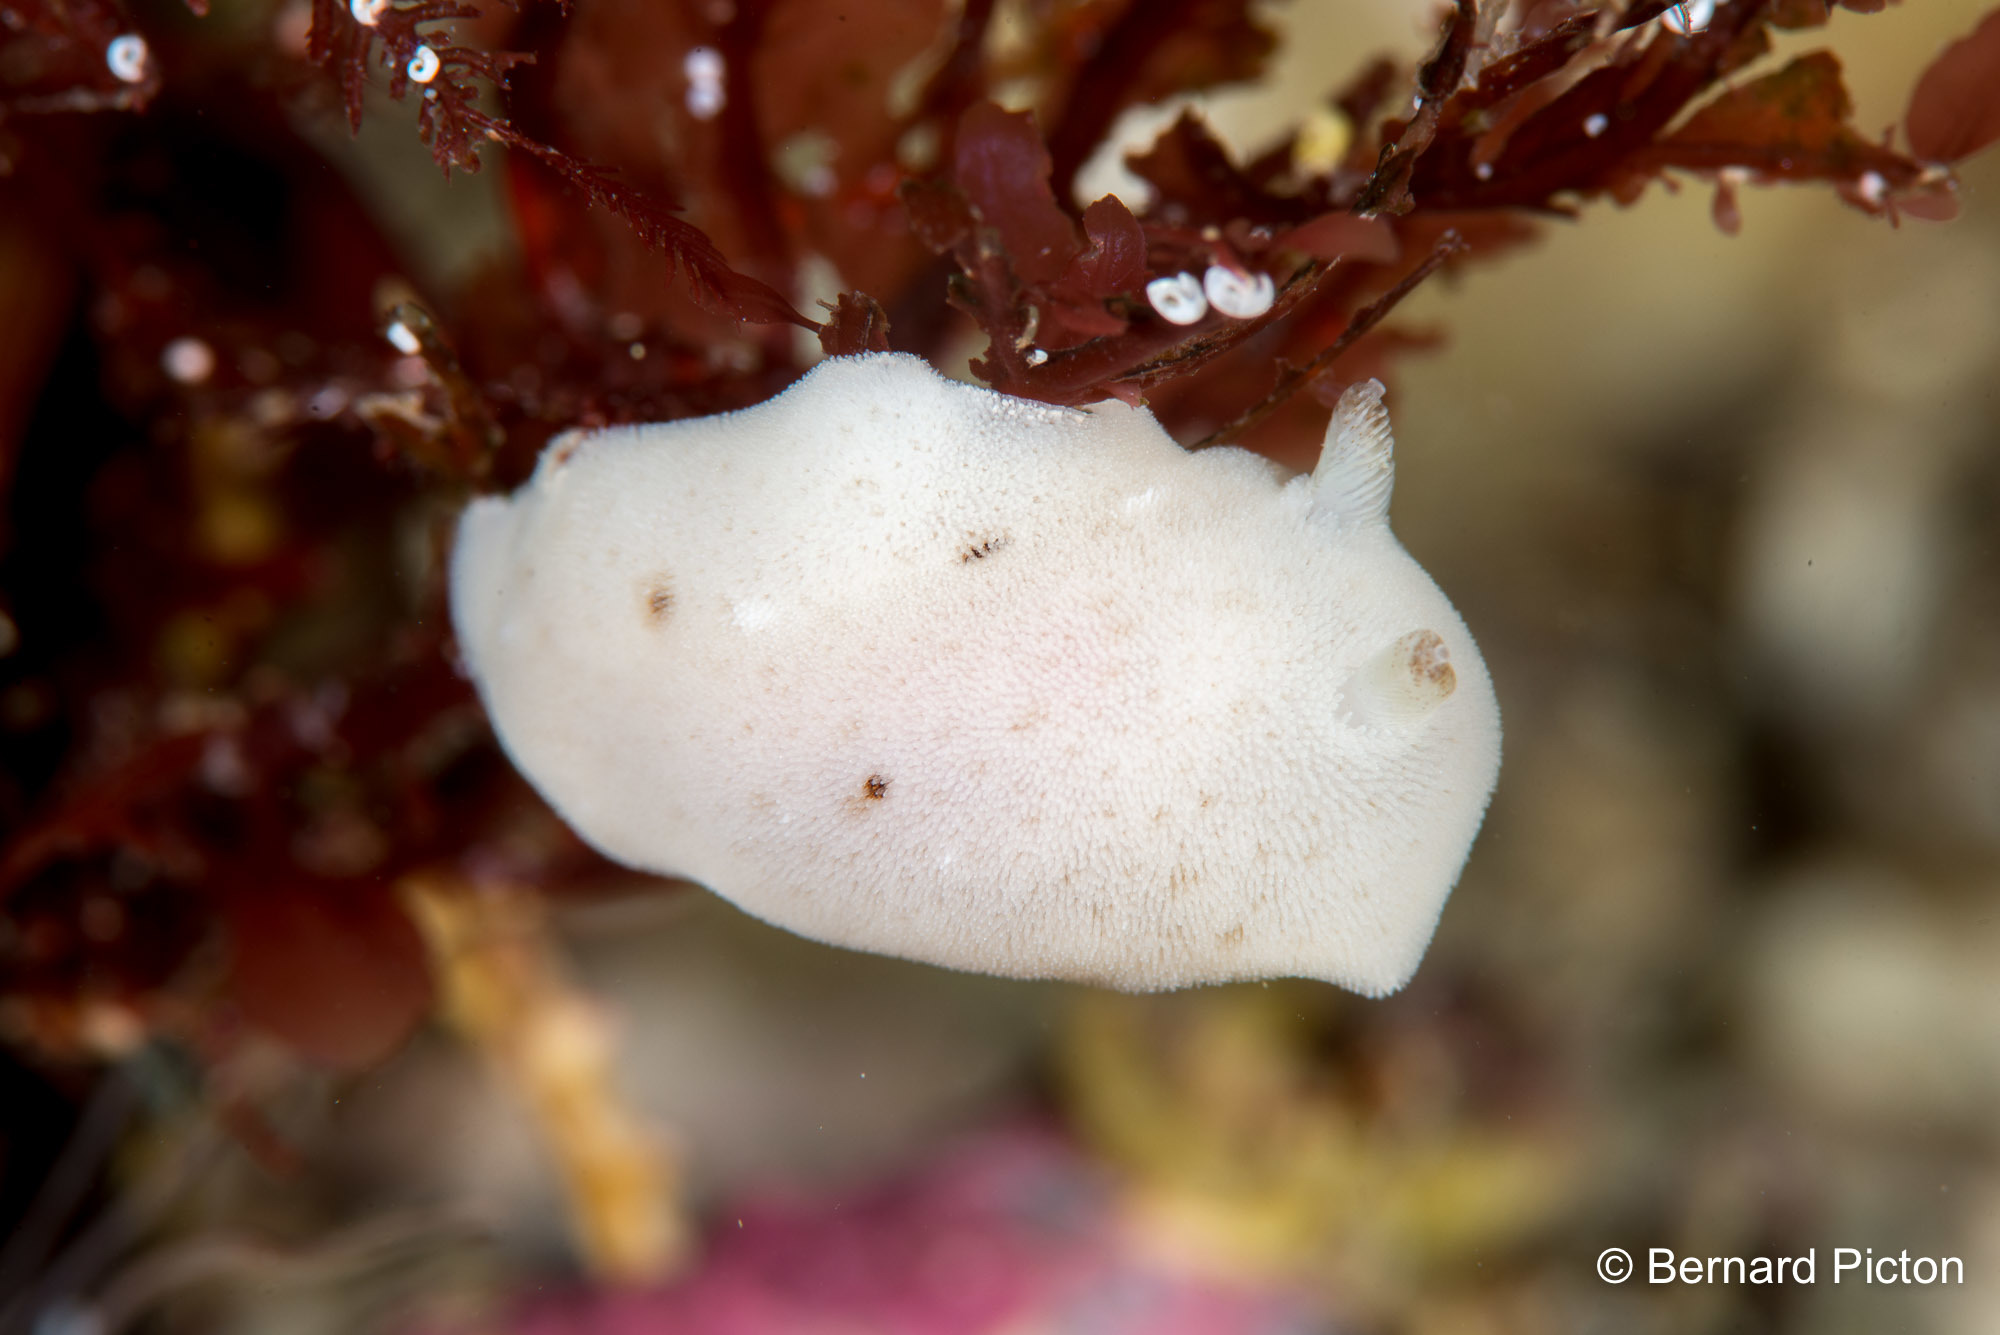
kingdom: Animalia
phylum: Mollusca
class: Gastropoda
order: Nudibranchia
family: Discodorididae
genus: Jorunna
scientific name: Jorunna tomentosa
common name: Grey sea slug
